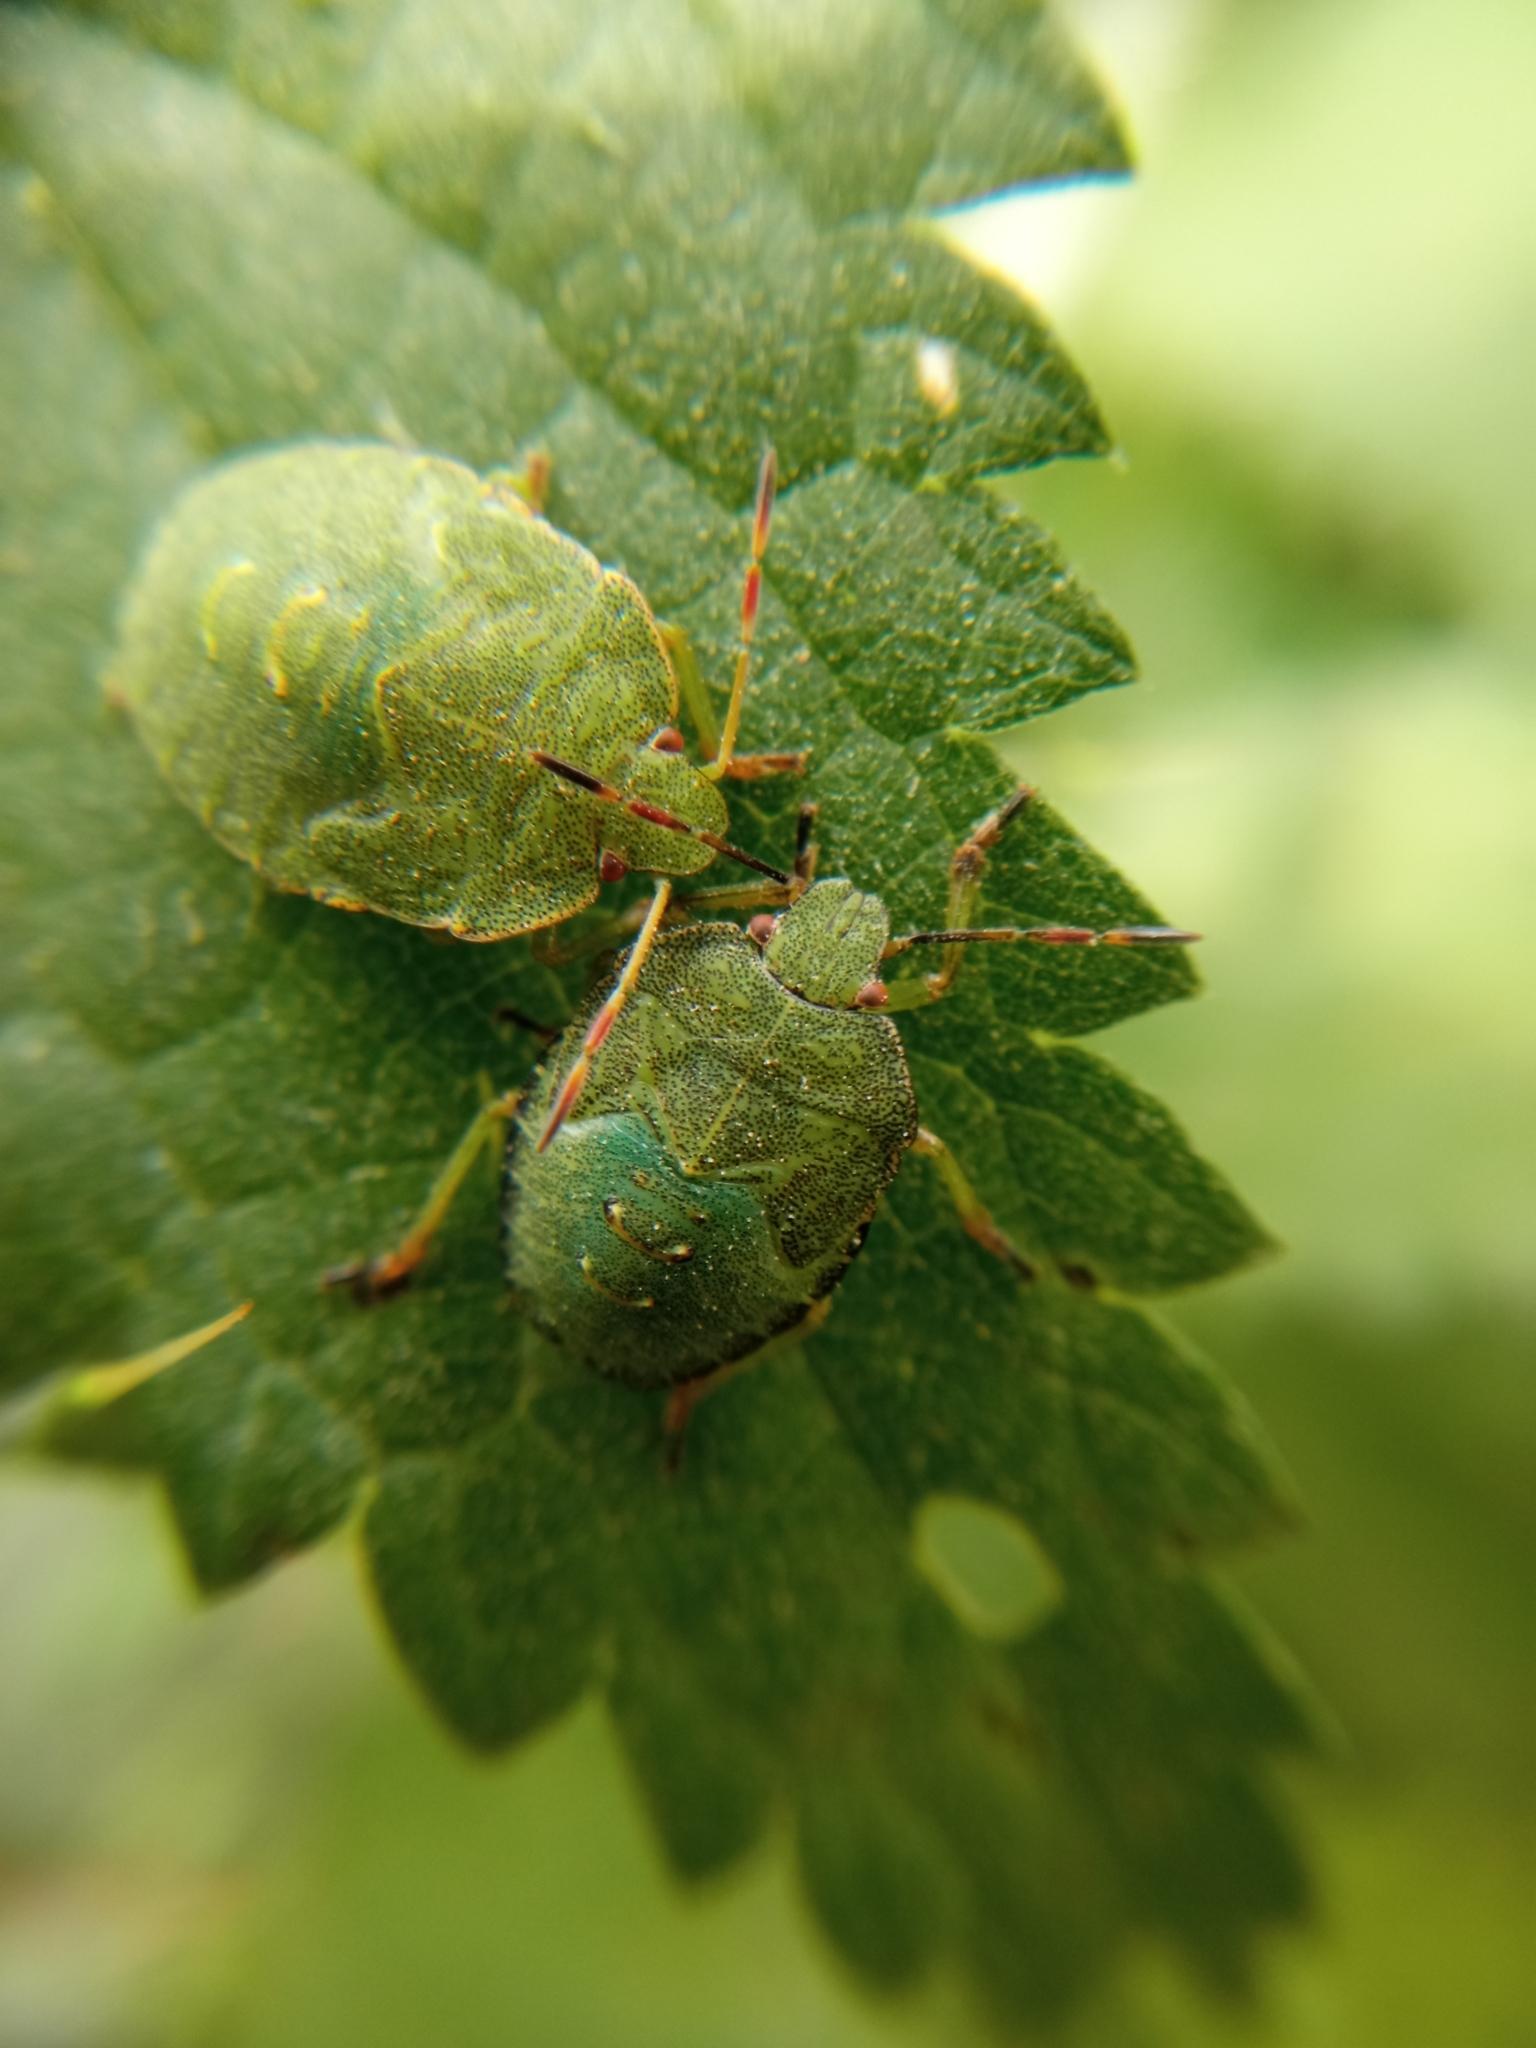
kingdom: Animalia
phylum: Arthropoda
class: Insecta
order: Hemiptera
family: Pentatomidae
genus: Palomena
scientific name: Palomena prasina
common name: Green shieldbug
